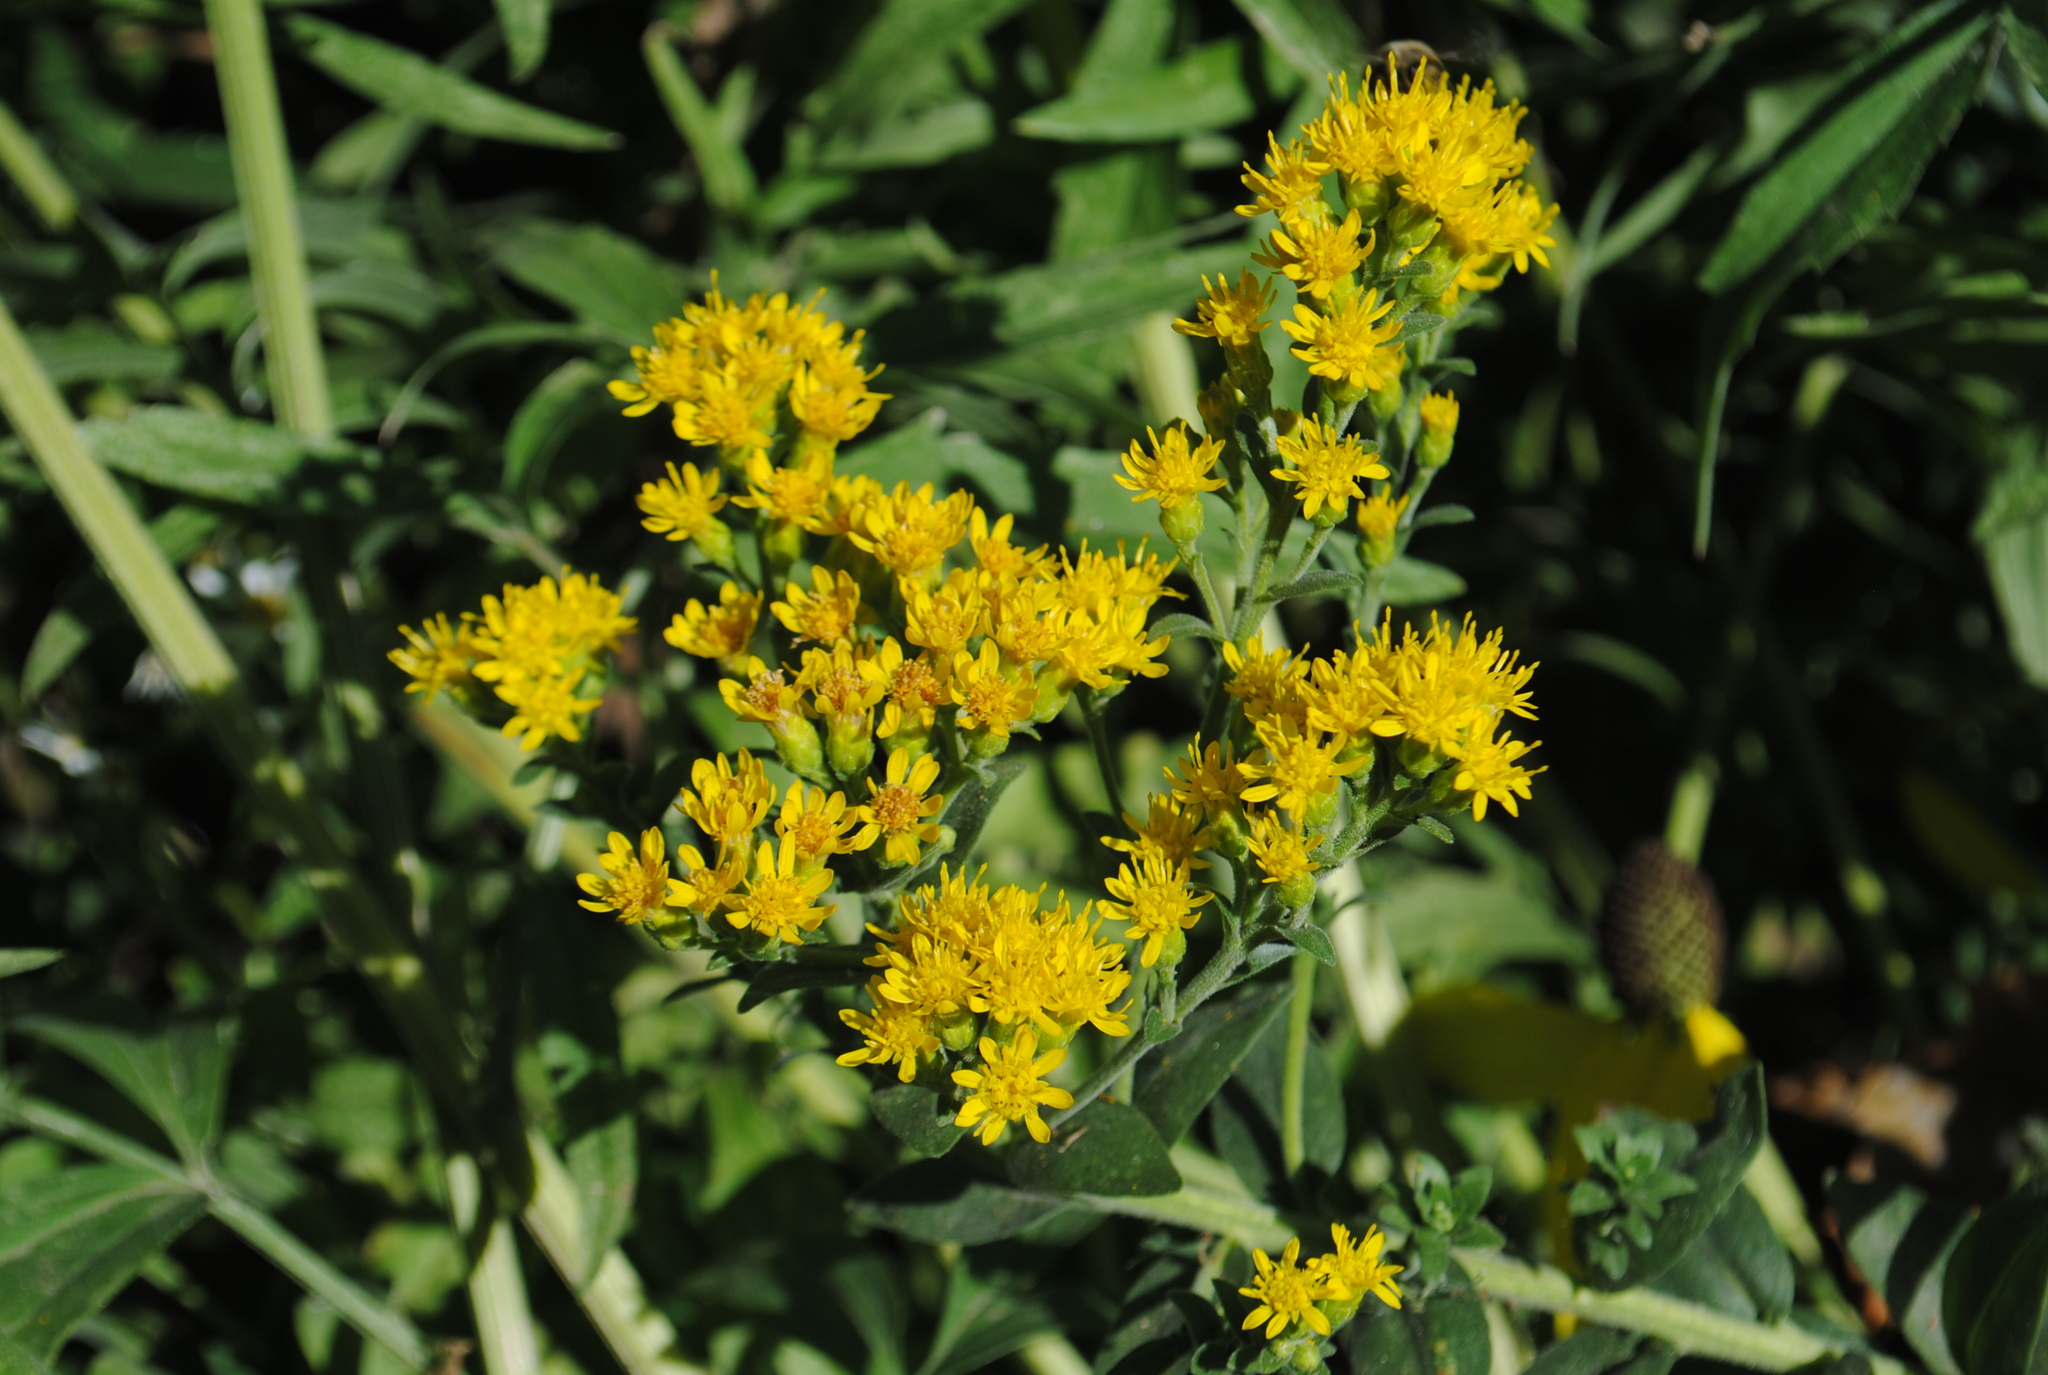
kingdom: Plantae
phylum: Tracheophyta
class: Magnoliopsida
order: Asterales
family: Asteraceae
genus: Solidago
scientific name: Solidago rigida
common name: Rigid goldenrod
